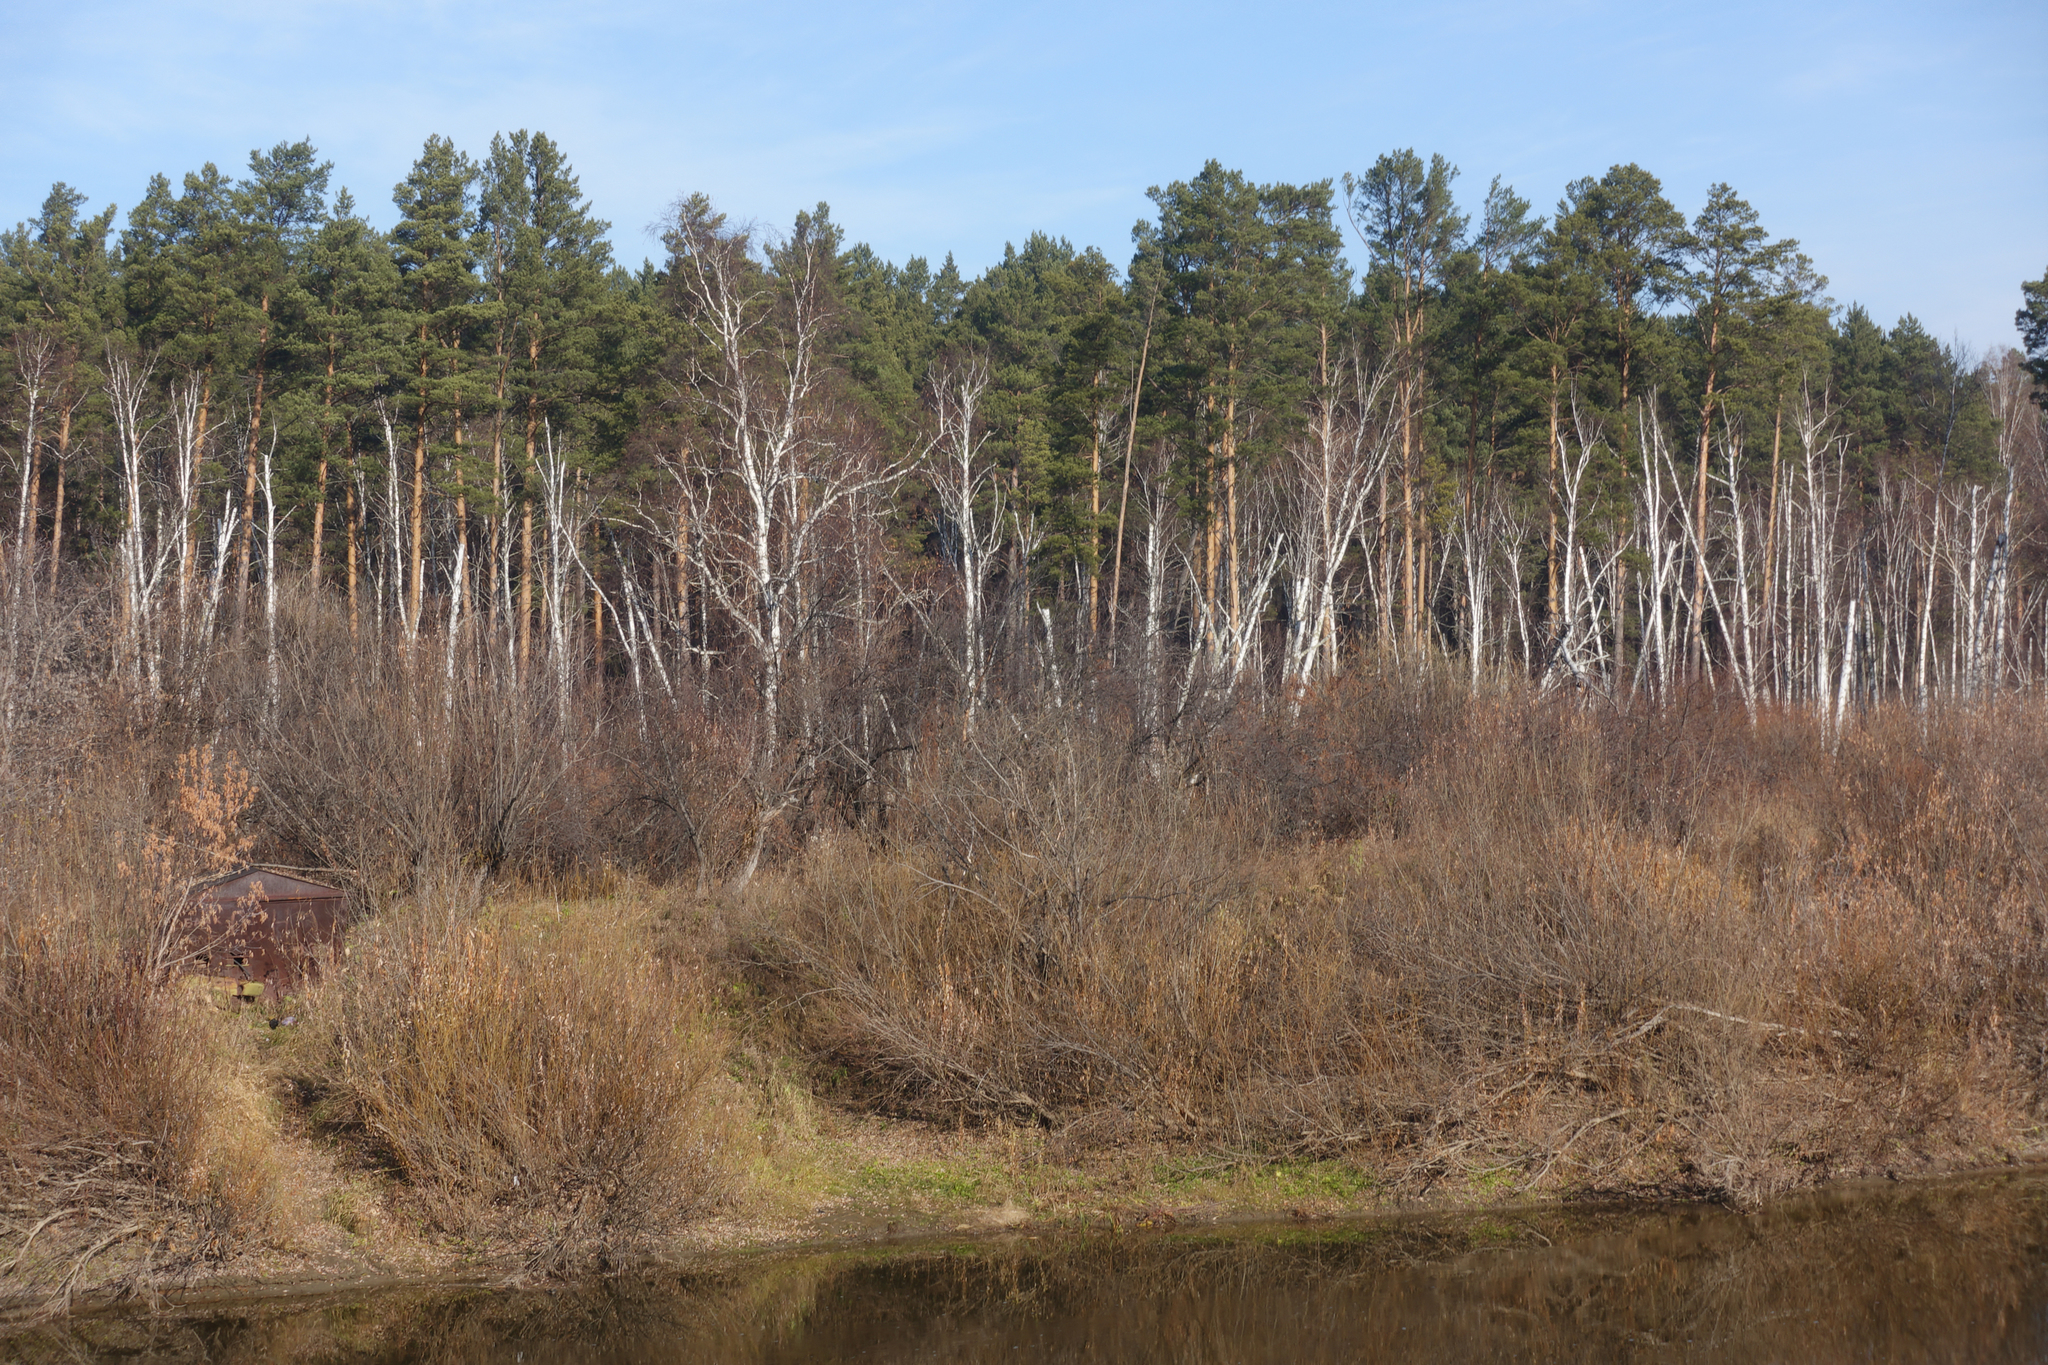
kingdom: Plantae
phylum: Tracheophyta
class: Pinopsida
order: Pinales
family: Pinaceae
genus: Pinus
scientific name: Pinus sylvestris
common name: Scots pine
